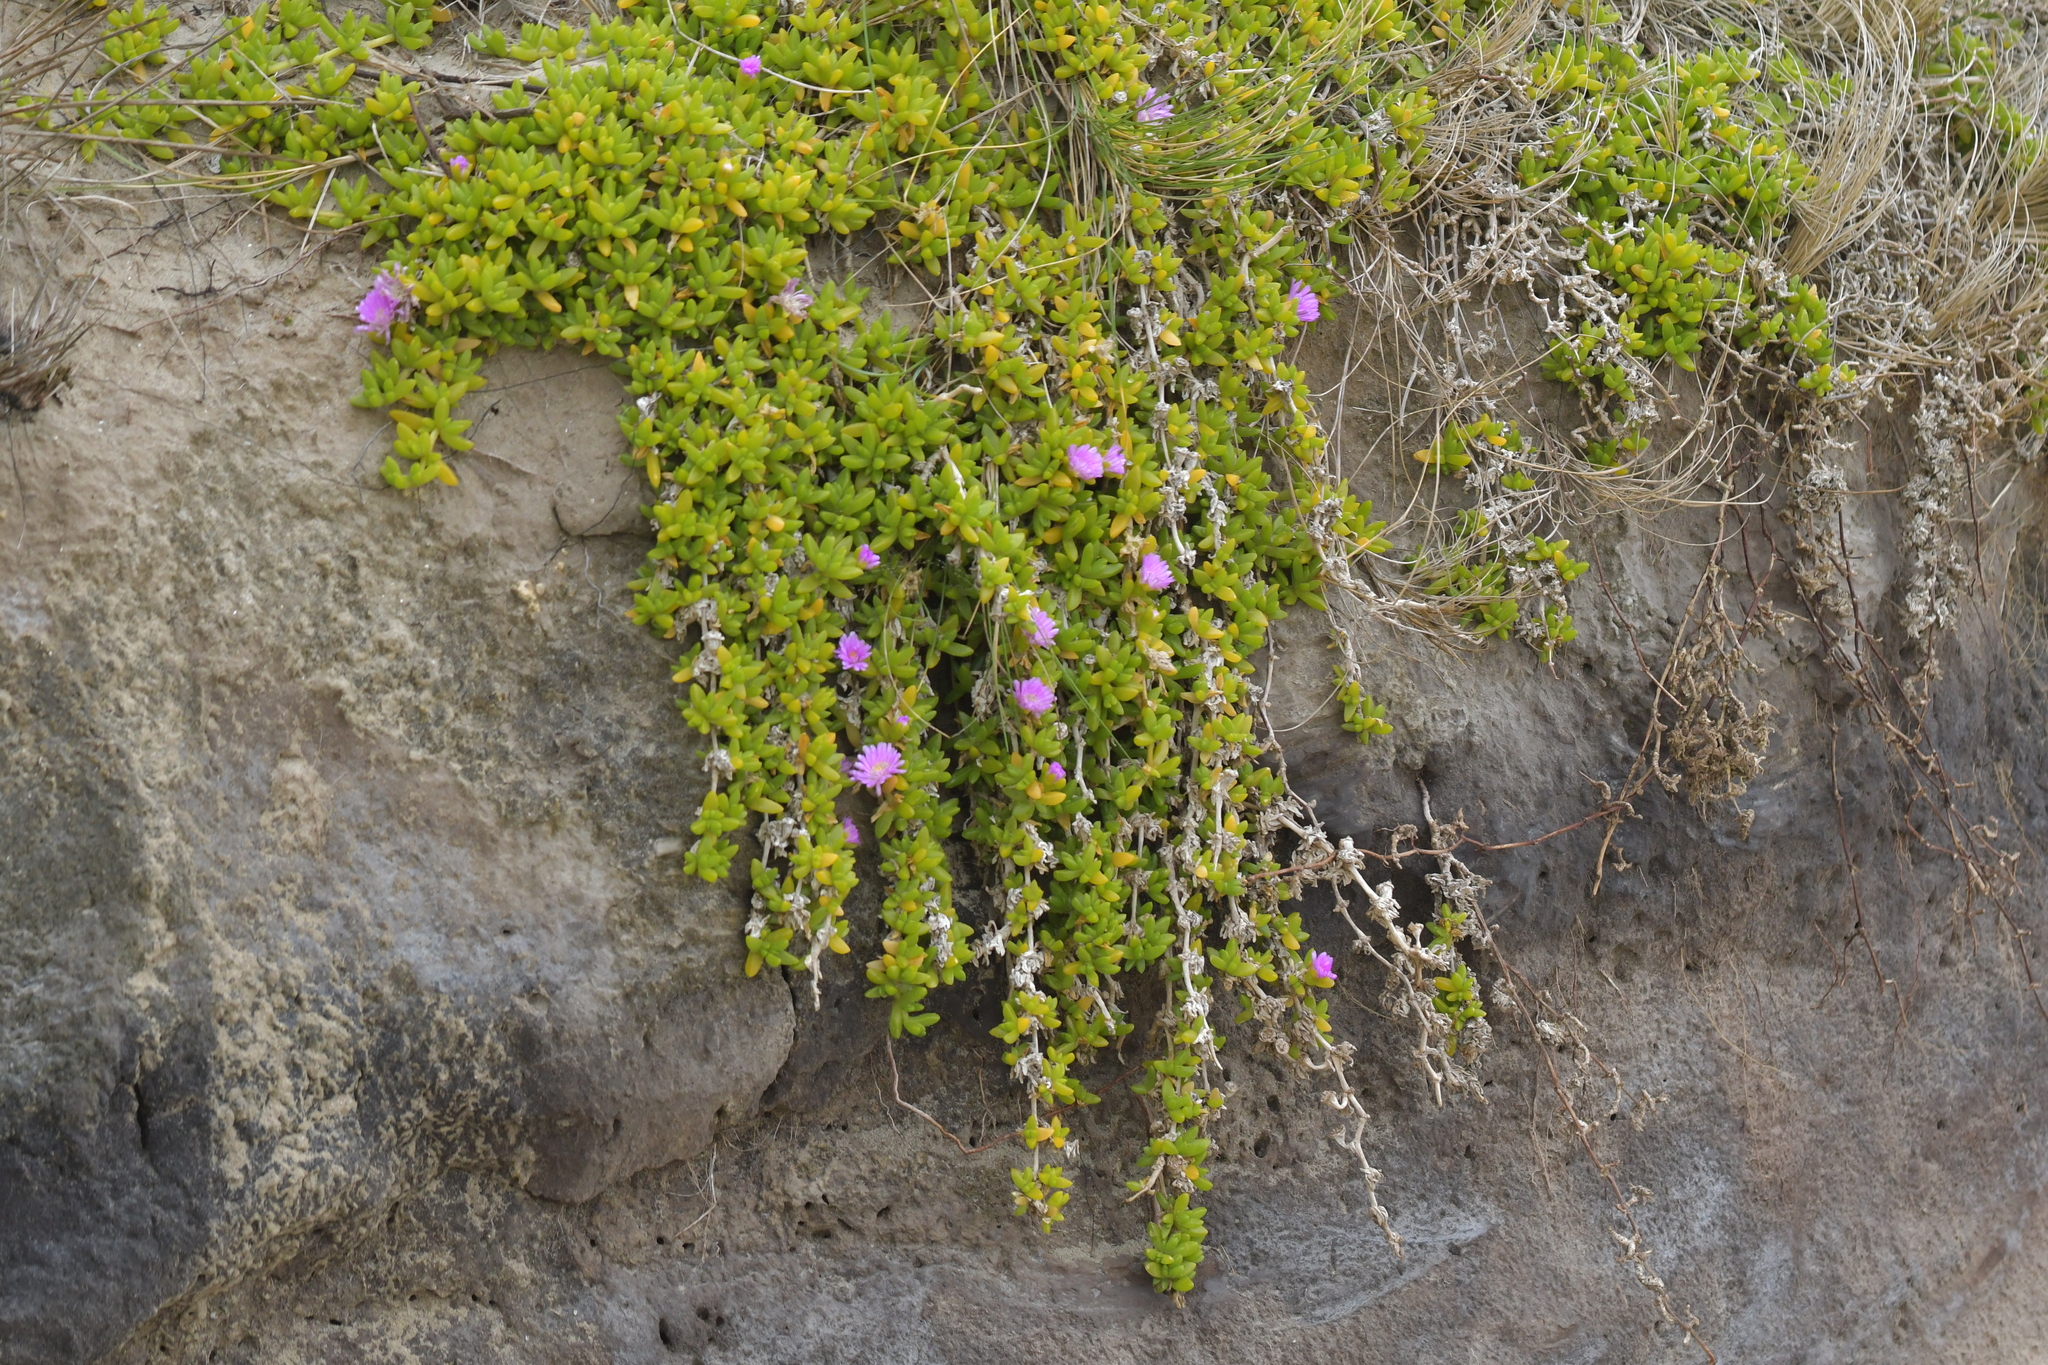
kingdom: Plantae
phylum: Tracheophyta
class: Magnoliopsida
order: Caryophyllales
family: Aizoaceae
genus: Disphyma
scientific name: Disphyma papillatum
